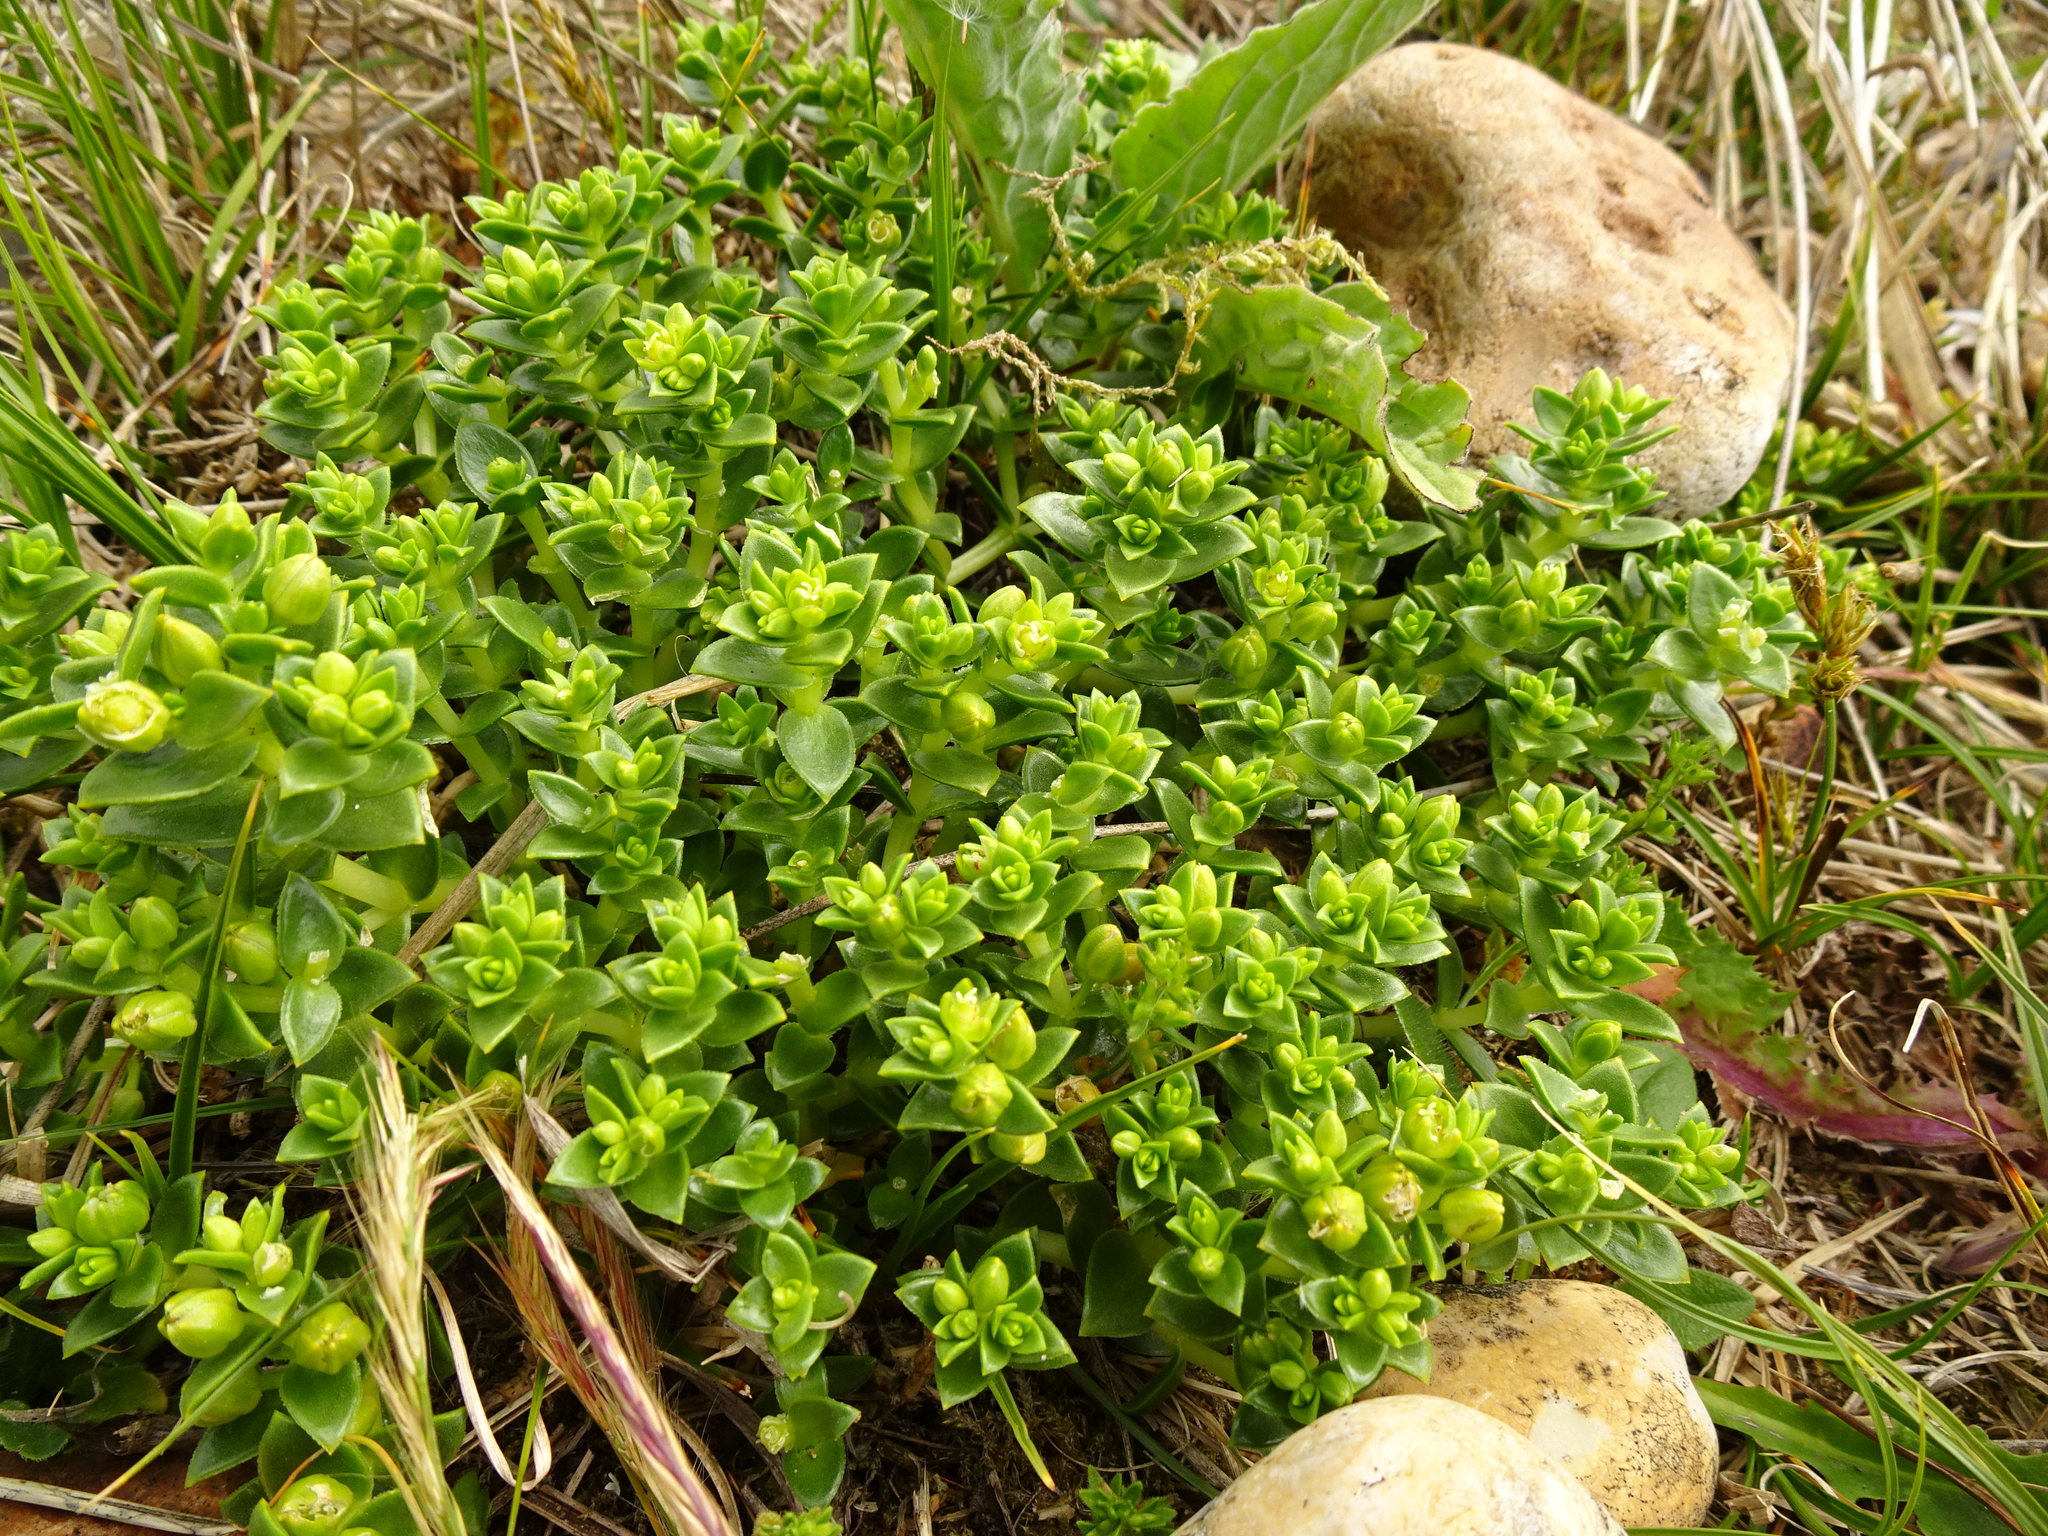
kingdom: Plantae
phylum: Tracheophyta
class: Magnoliopsida
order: Caryophyllales
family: Caryophyllaceae
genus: Honckenya
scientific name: Honckenya peploides
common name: Sea sandwort
